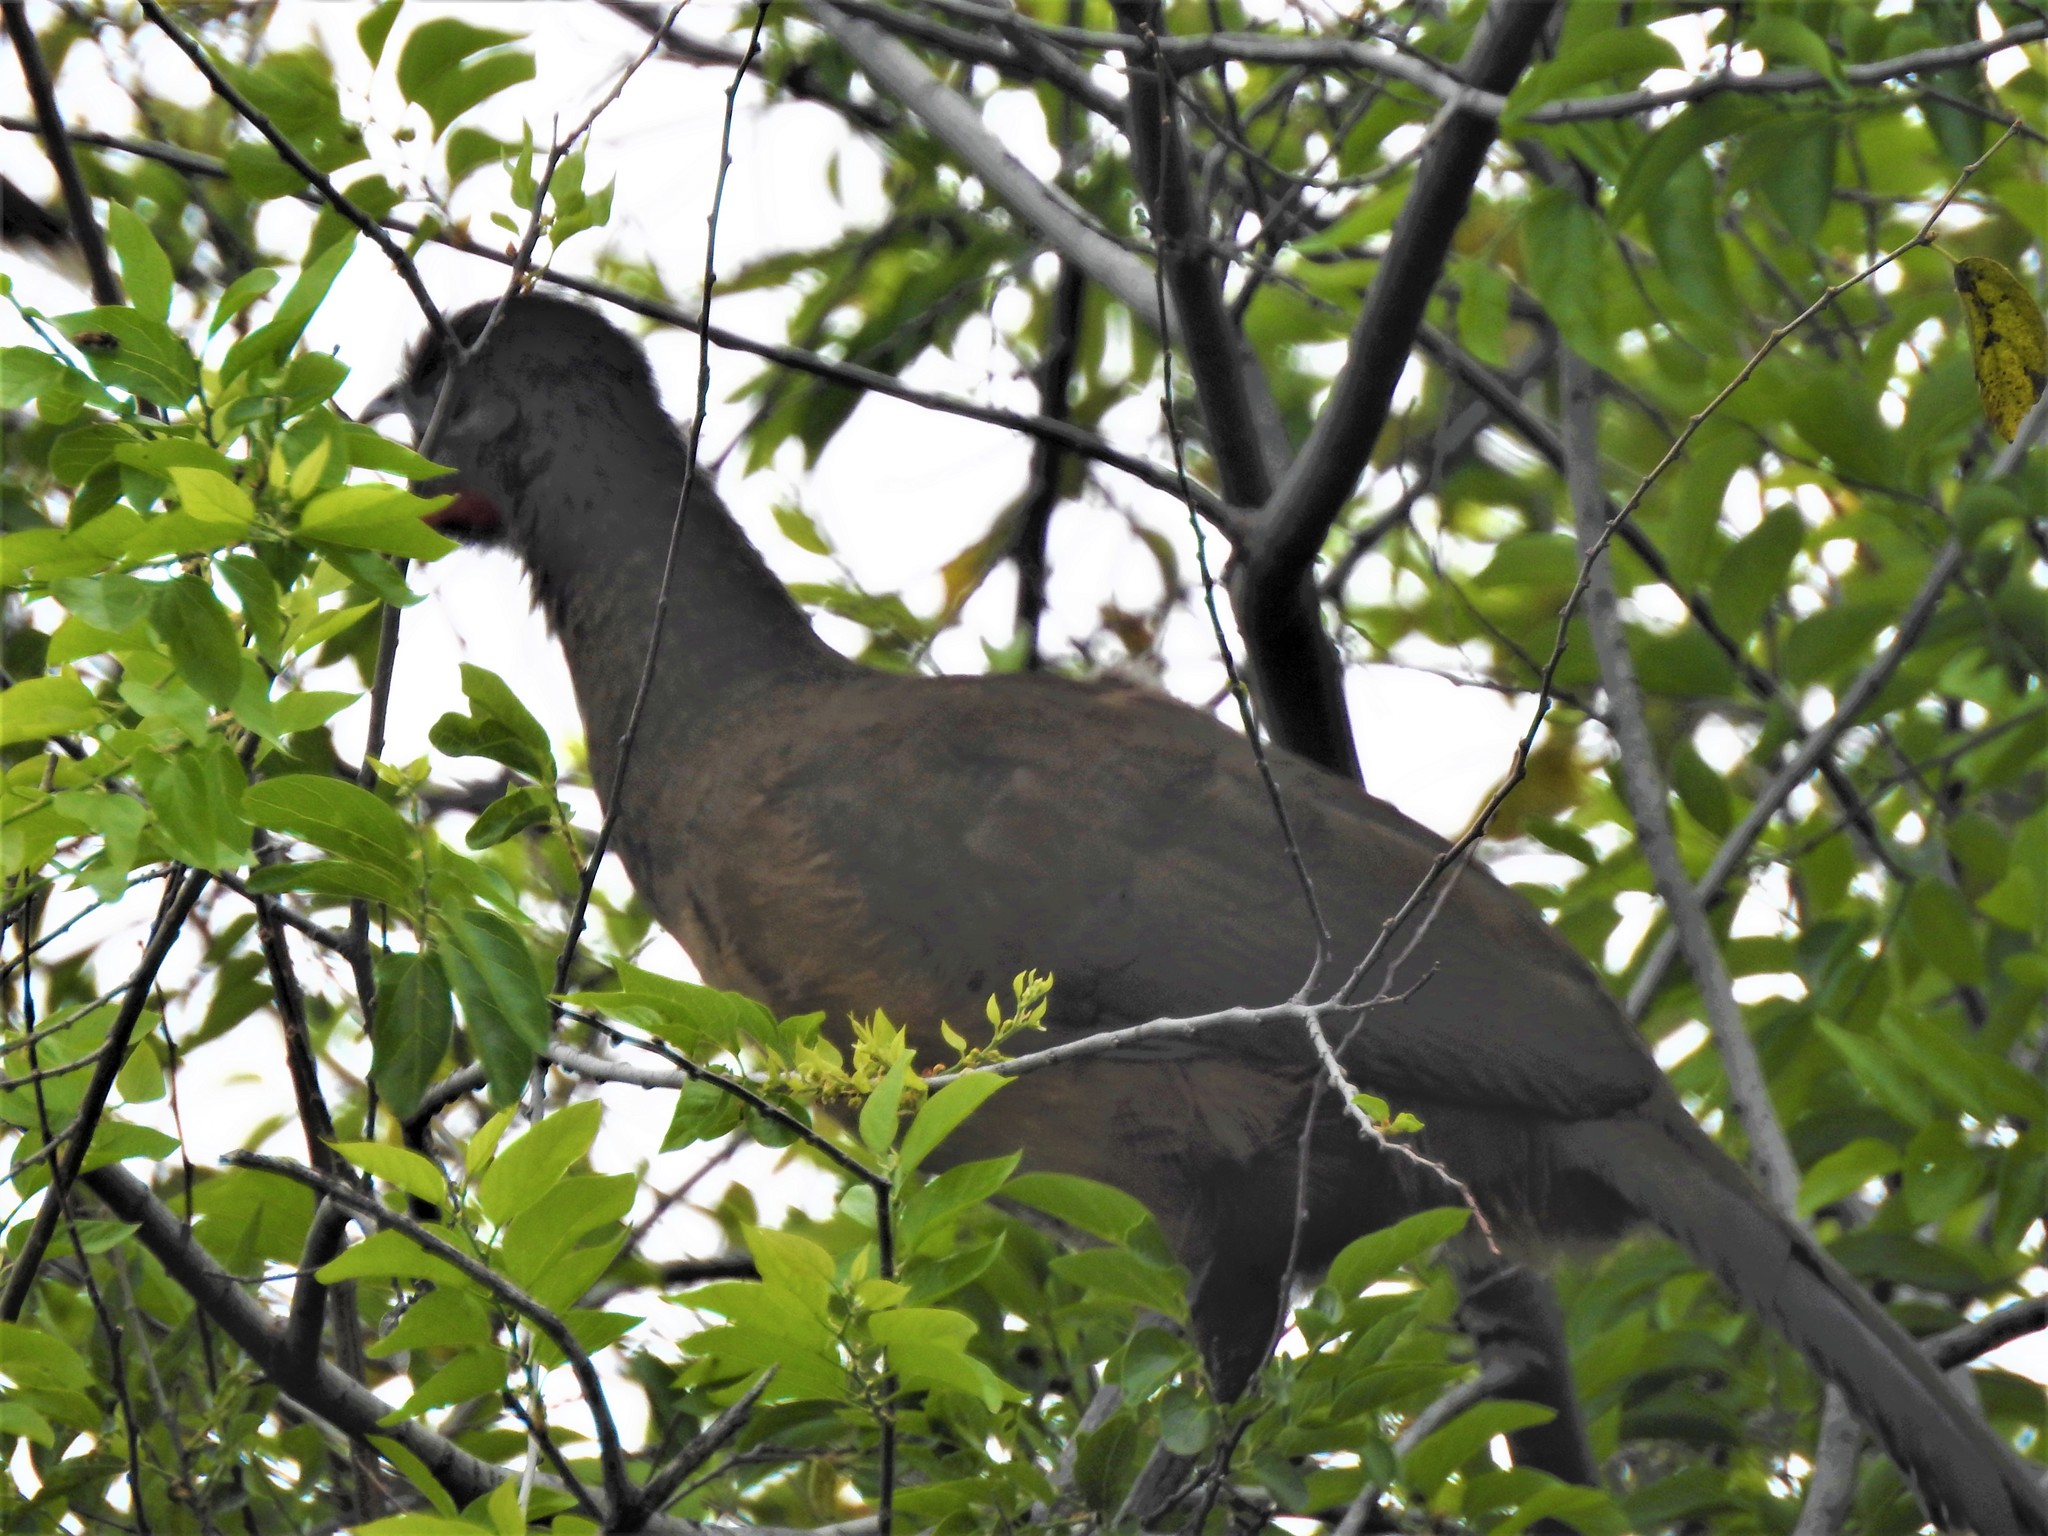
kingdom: Animalia
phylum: Chordata
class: Aves
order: Galliformes
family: Cracidae
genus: Ortalis
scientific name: Ortalis vetula
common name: Plain chachalaca
